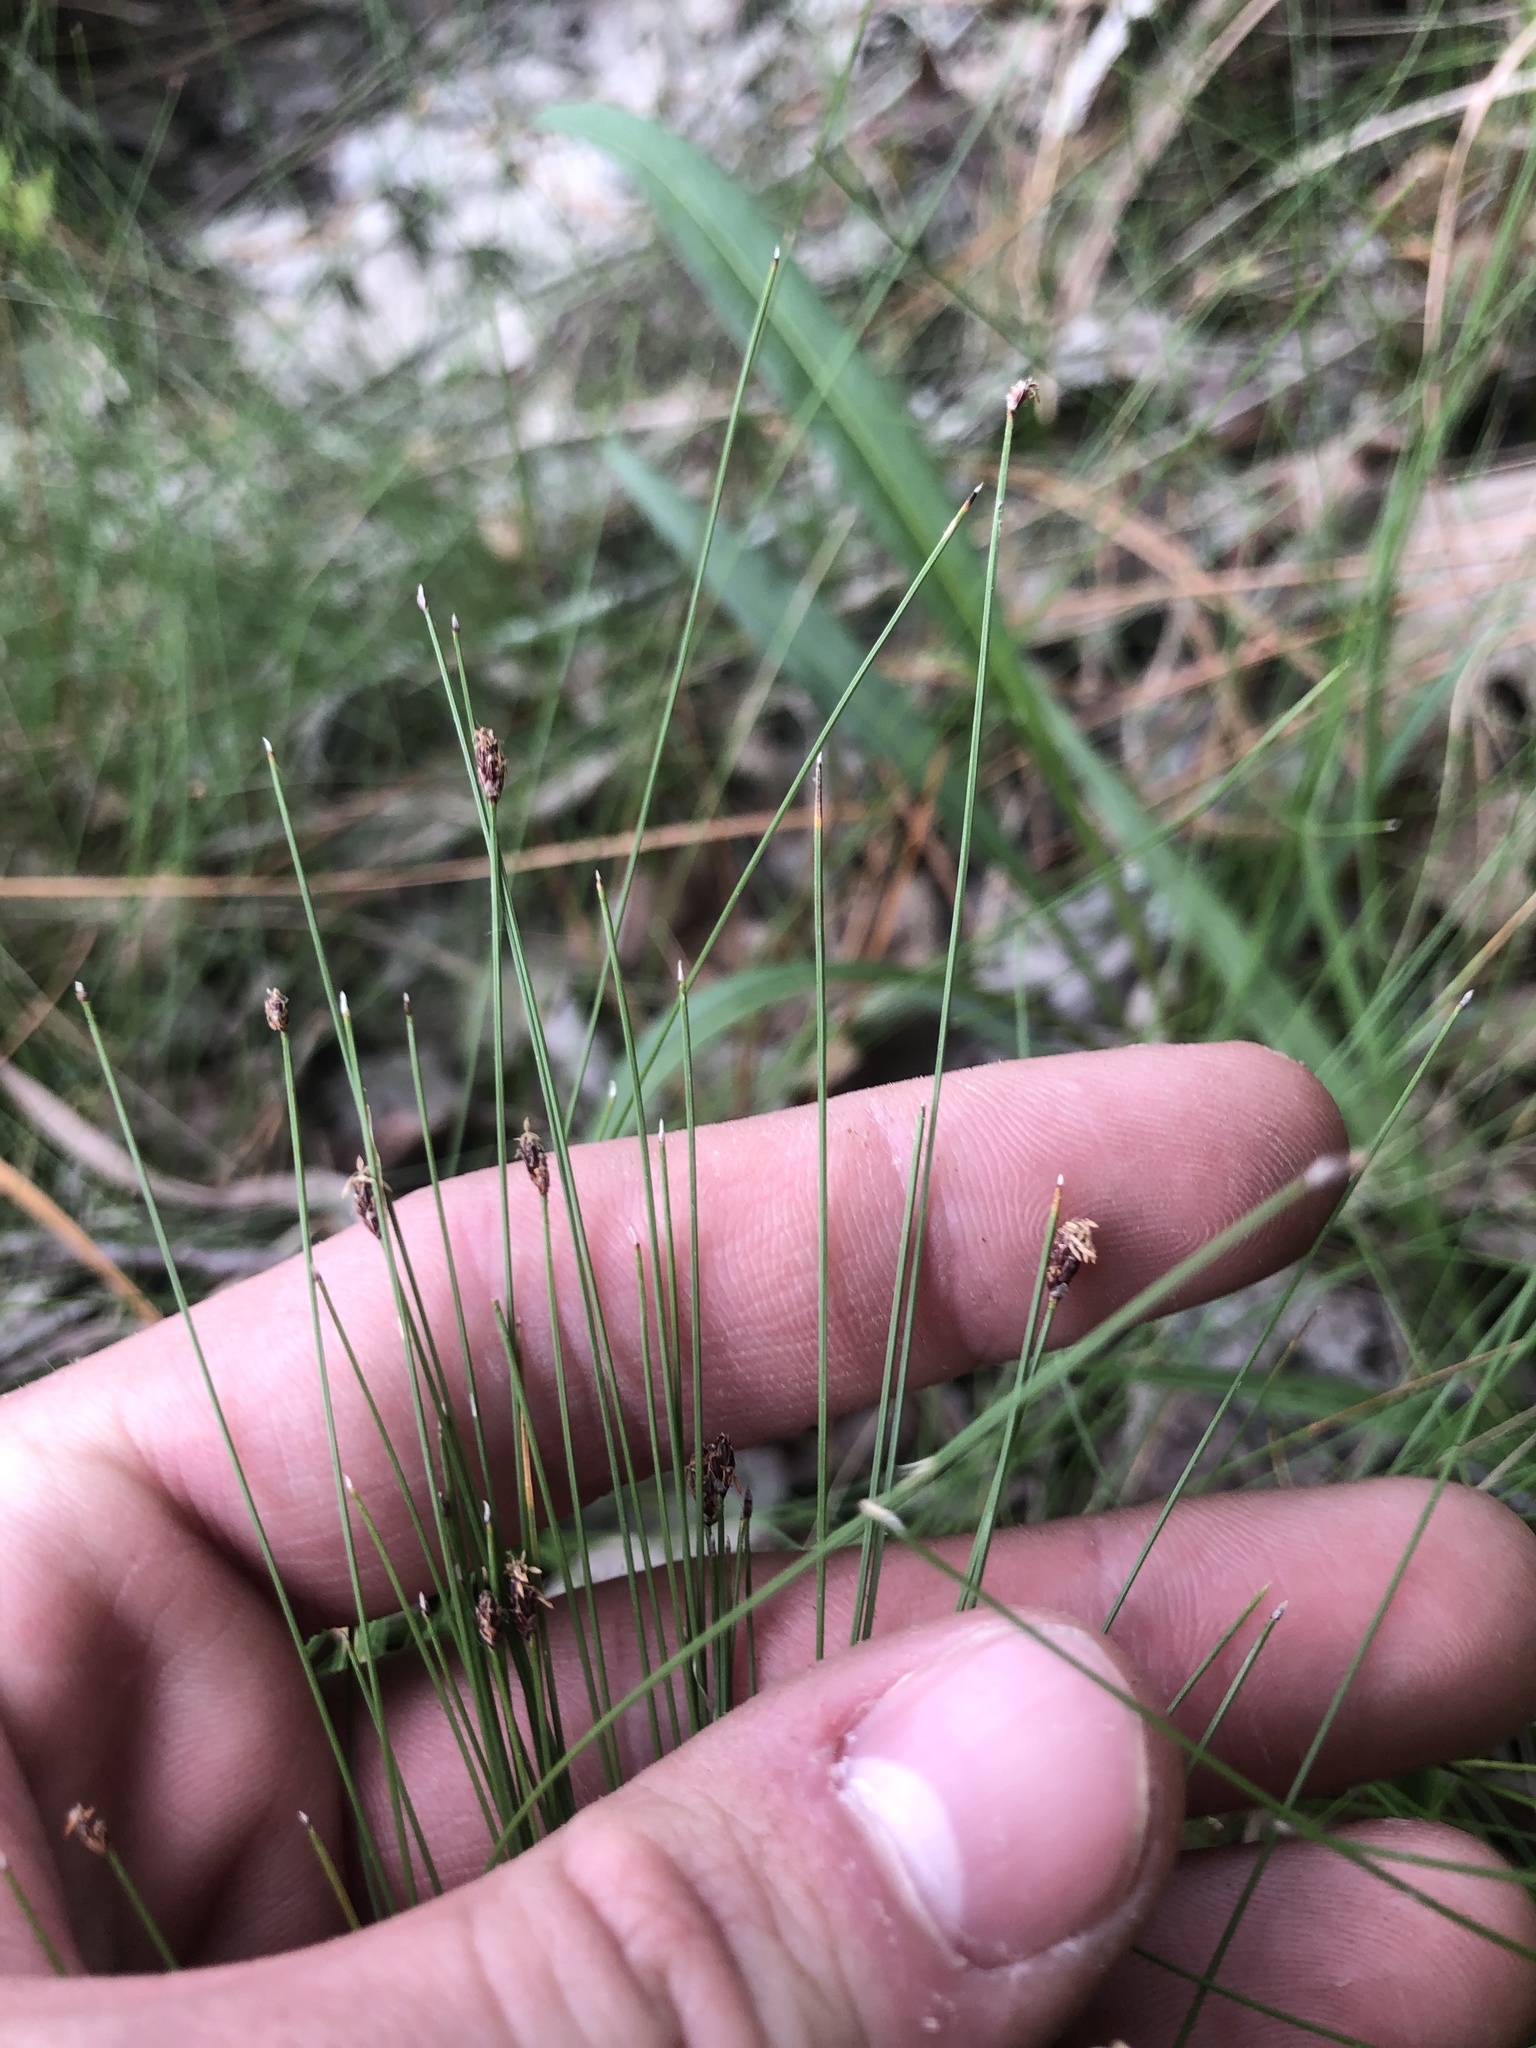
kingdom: Plantae
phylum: Tracheophyta
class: Liliopsida
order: Poales
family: Cyperaceae
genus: Eleocharis
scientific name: Eleocharis tuberculosa
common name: Cone-cup spikerush
